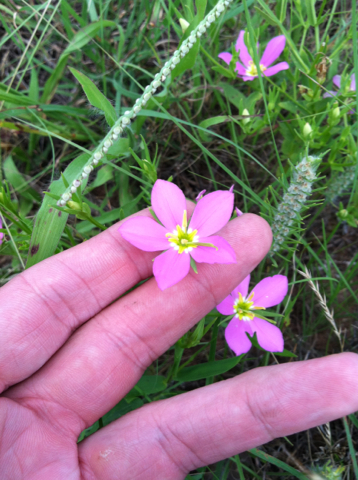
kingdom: Plantae
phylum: Tracheophyta
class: Magnoliopsida
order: Gentianales
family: Gentianaceae
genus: Sabatia
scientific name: Sabatia campestris
